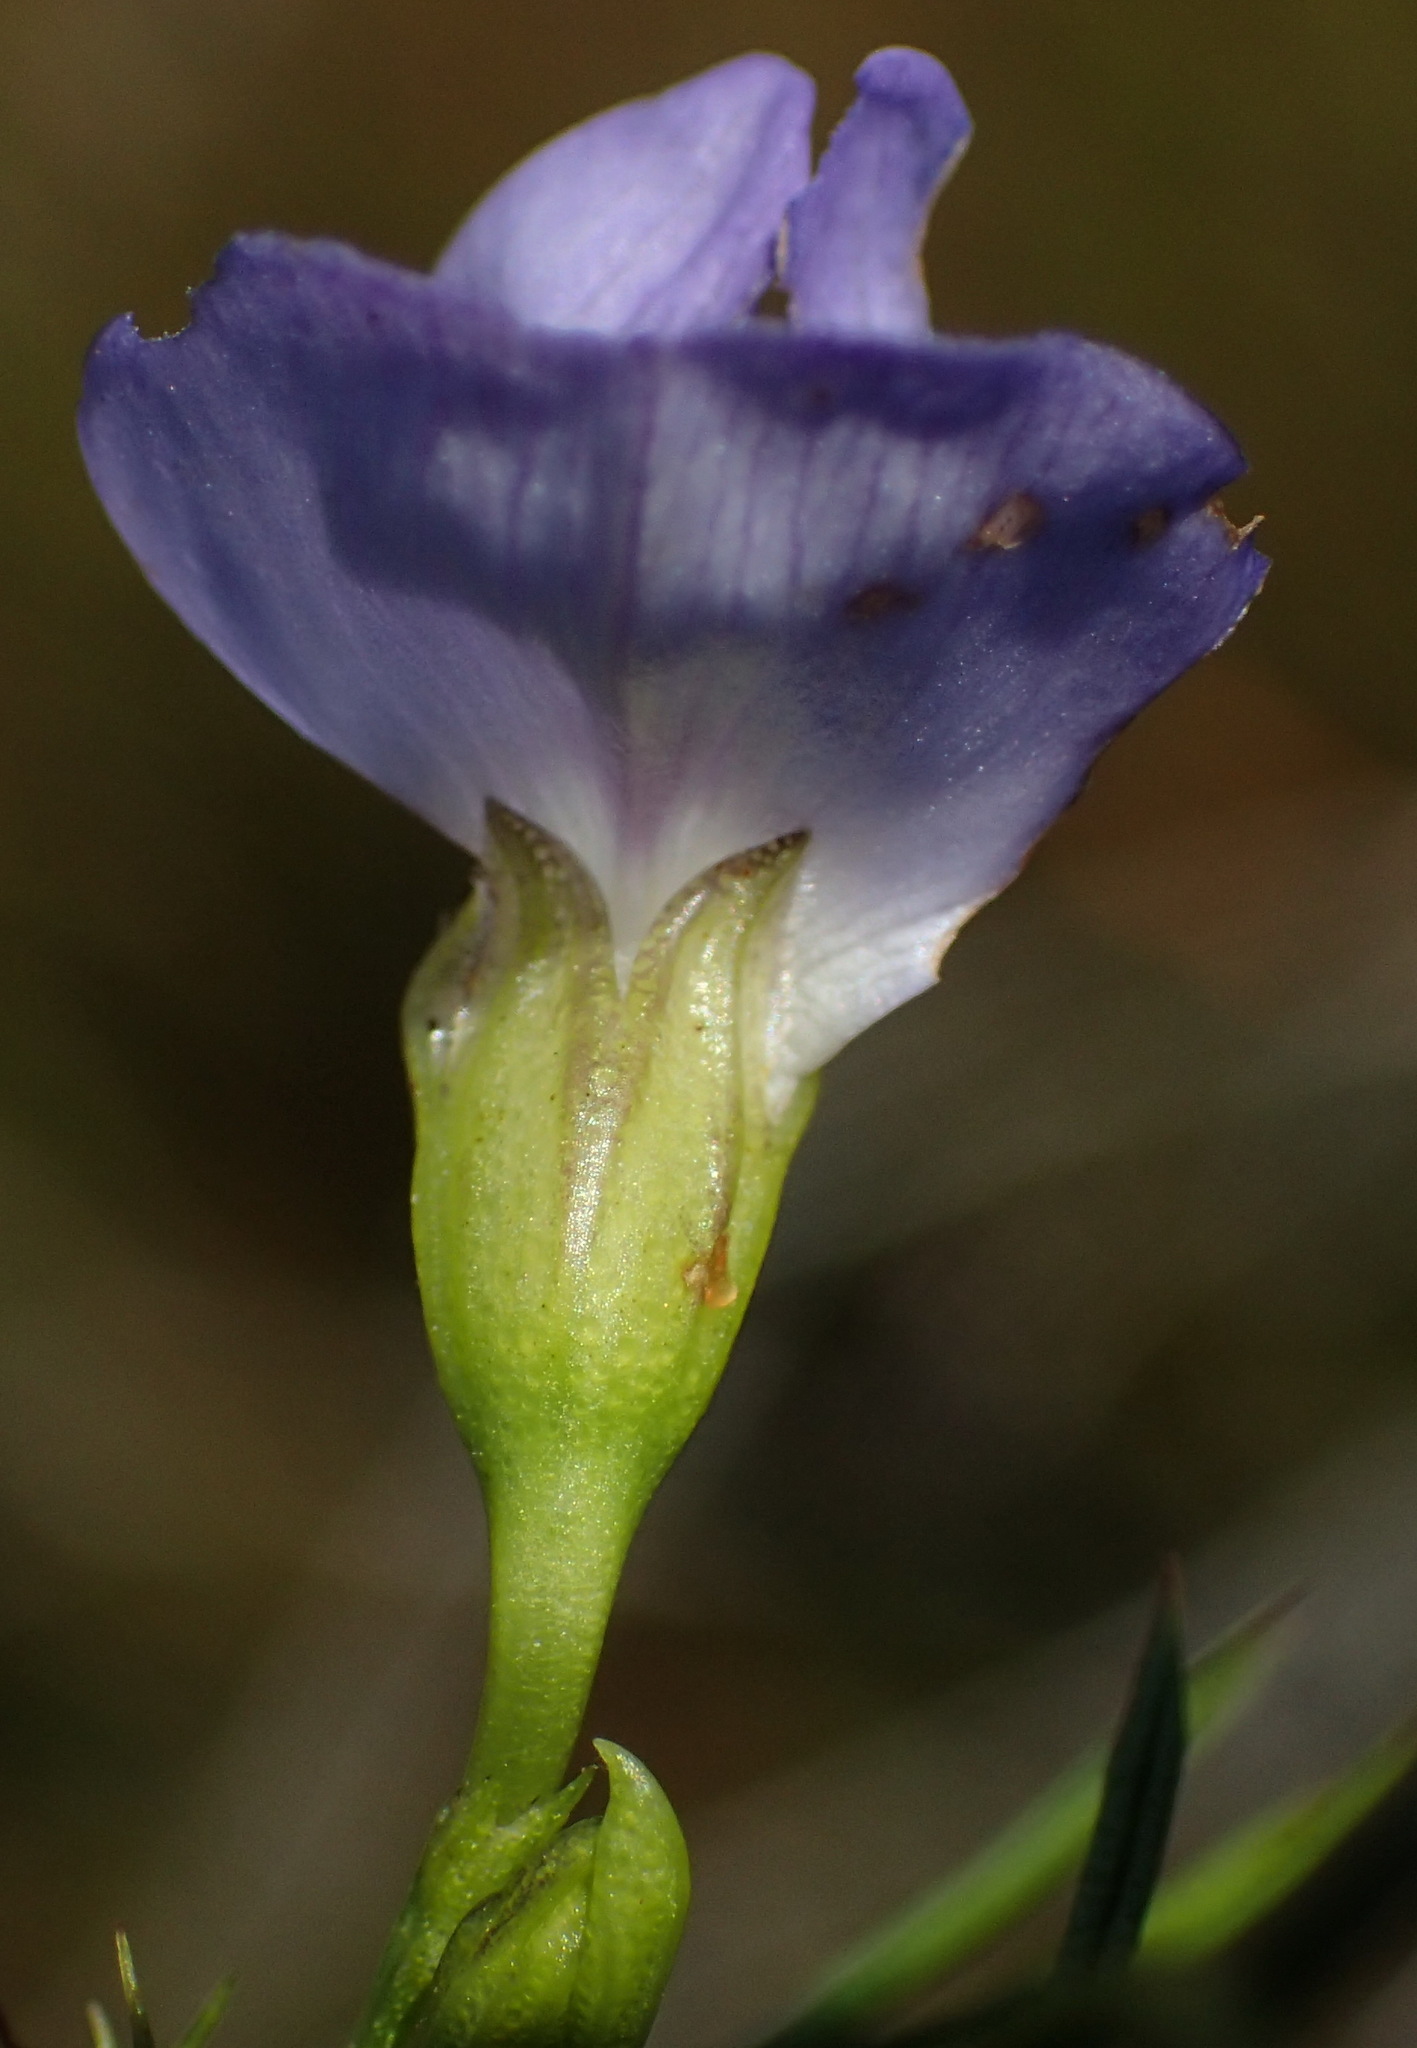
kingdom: Plantae
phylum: Tracheophyta
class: Magnoliopsida
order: Fabales
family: Fabaceae
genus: Psoralea
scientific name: Psoralea laevigata
